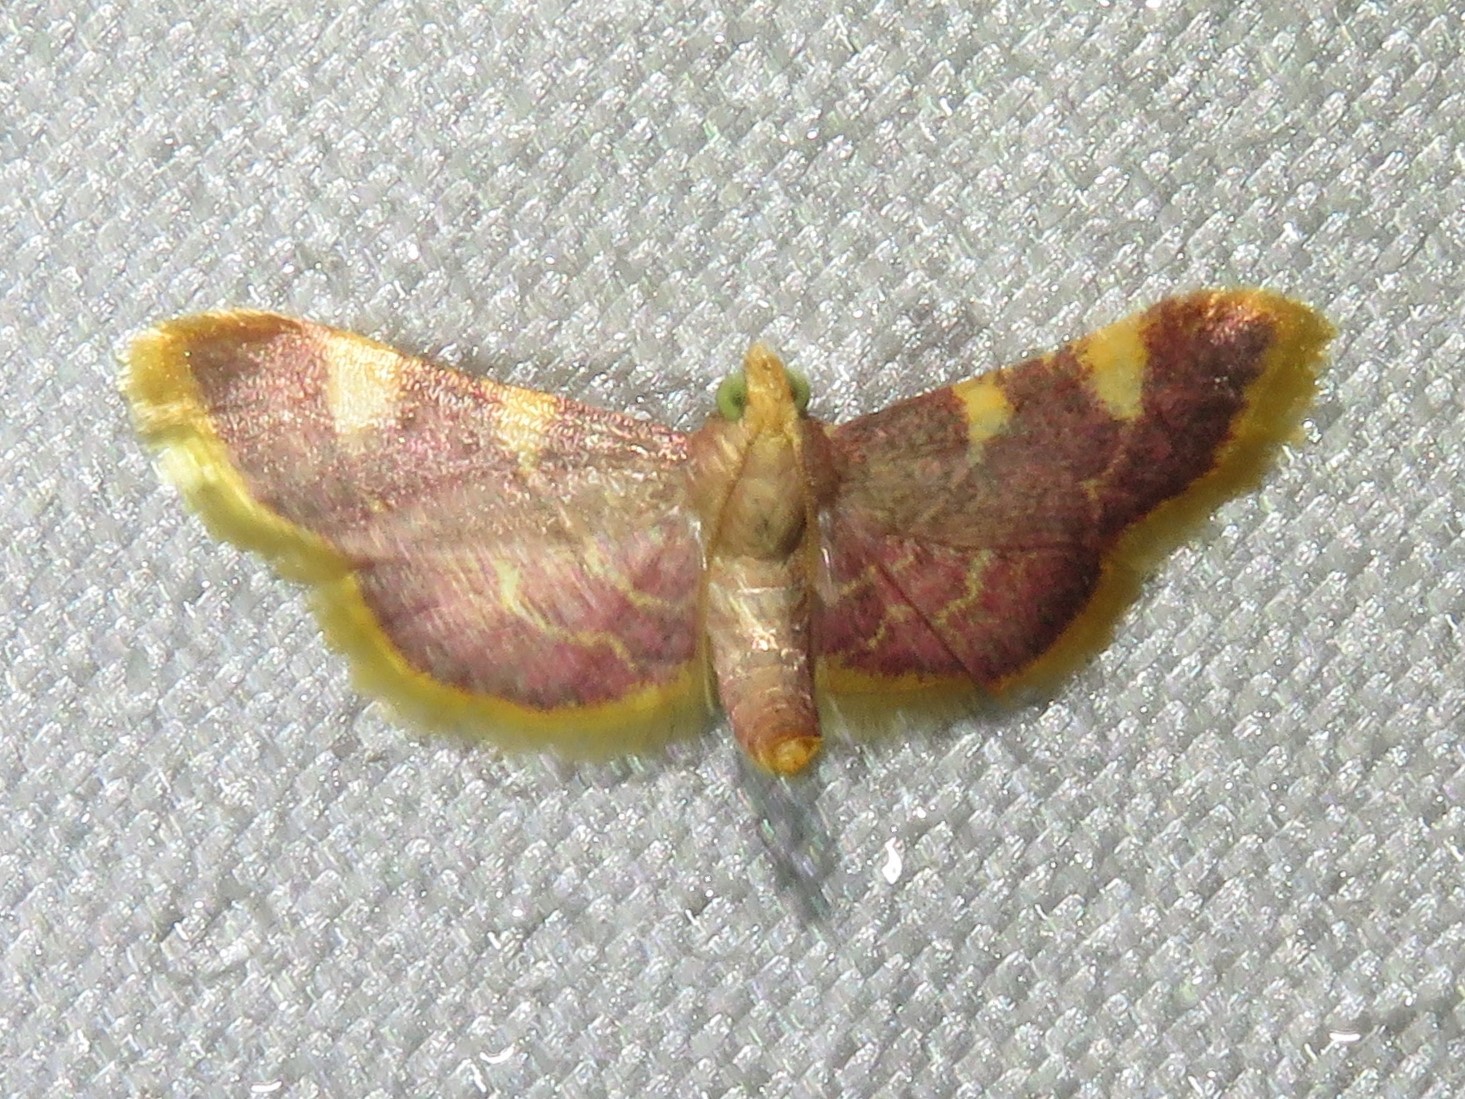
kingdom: Animalia
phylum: Arthropoda
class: Insecta
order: Lepidoptera
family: Pyralidae
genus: Hypsopygia
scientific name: Hypsopygia costalis
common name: Gold triangle
